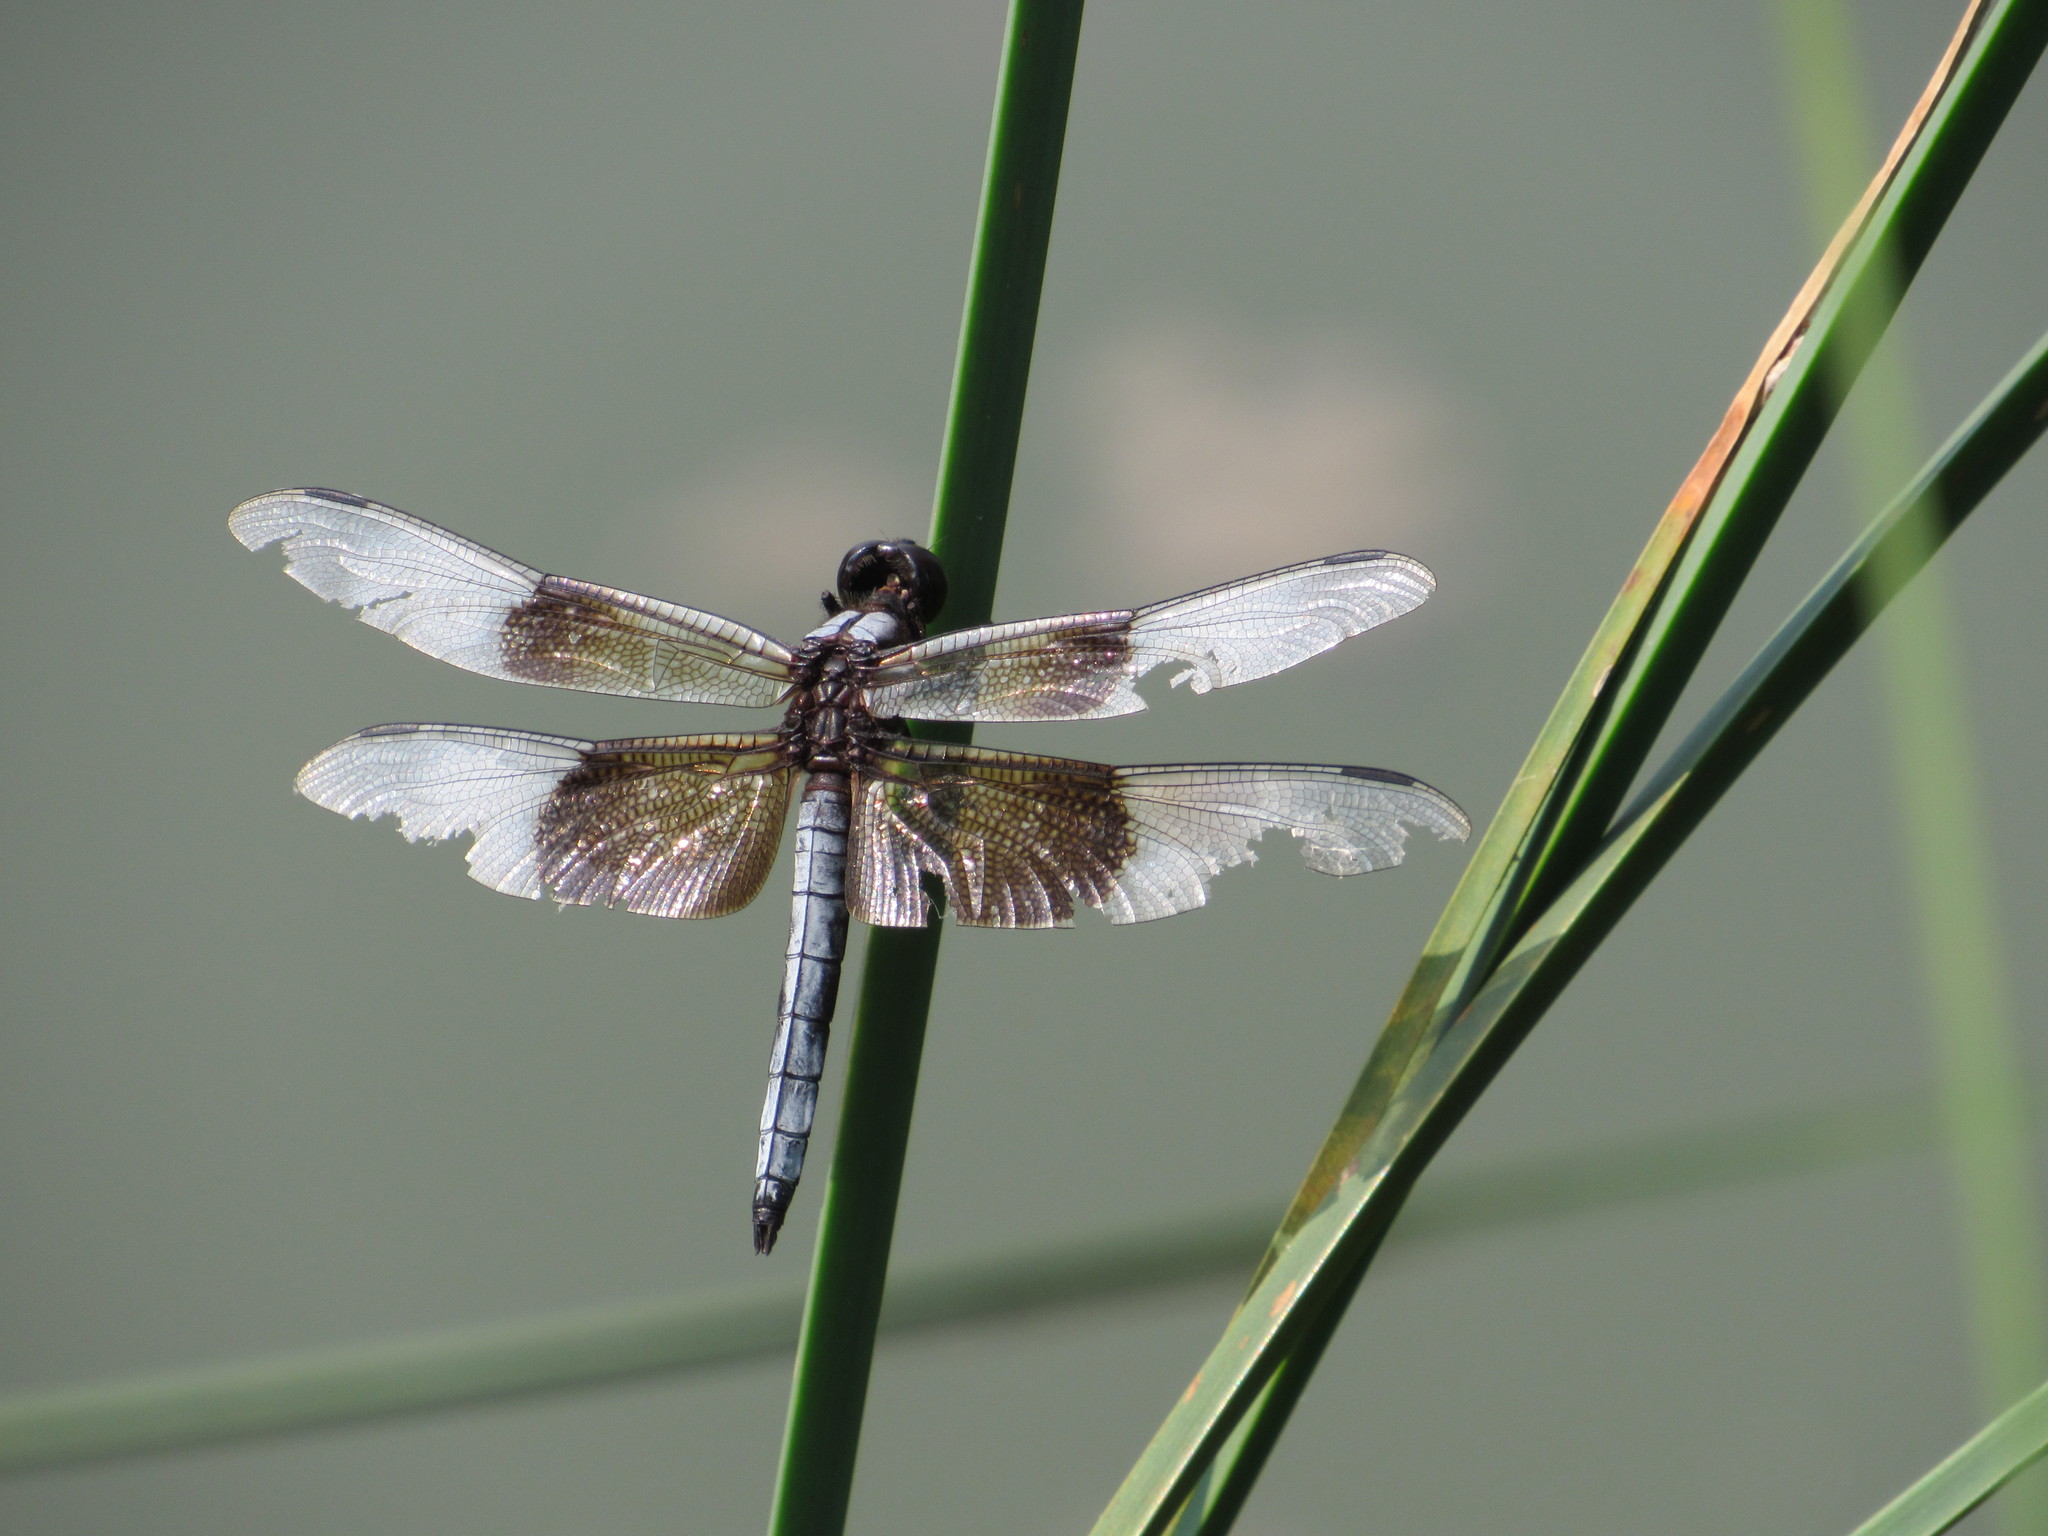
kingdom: Animalia
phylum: Arthropoda
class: Insecta
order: Odonata
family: Libellulidae
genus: Libellula
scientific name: Libellula luctuosa
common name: Widow skimmer
